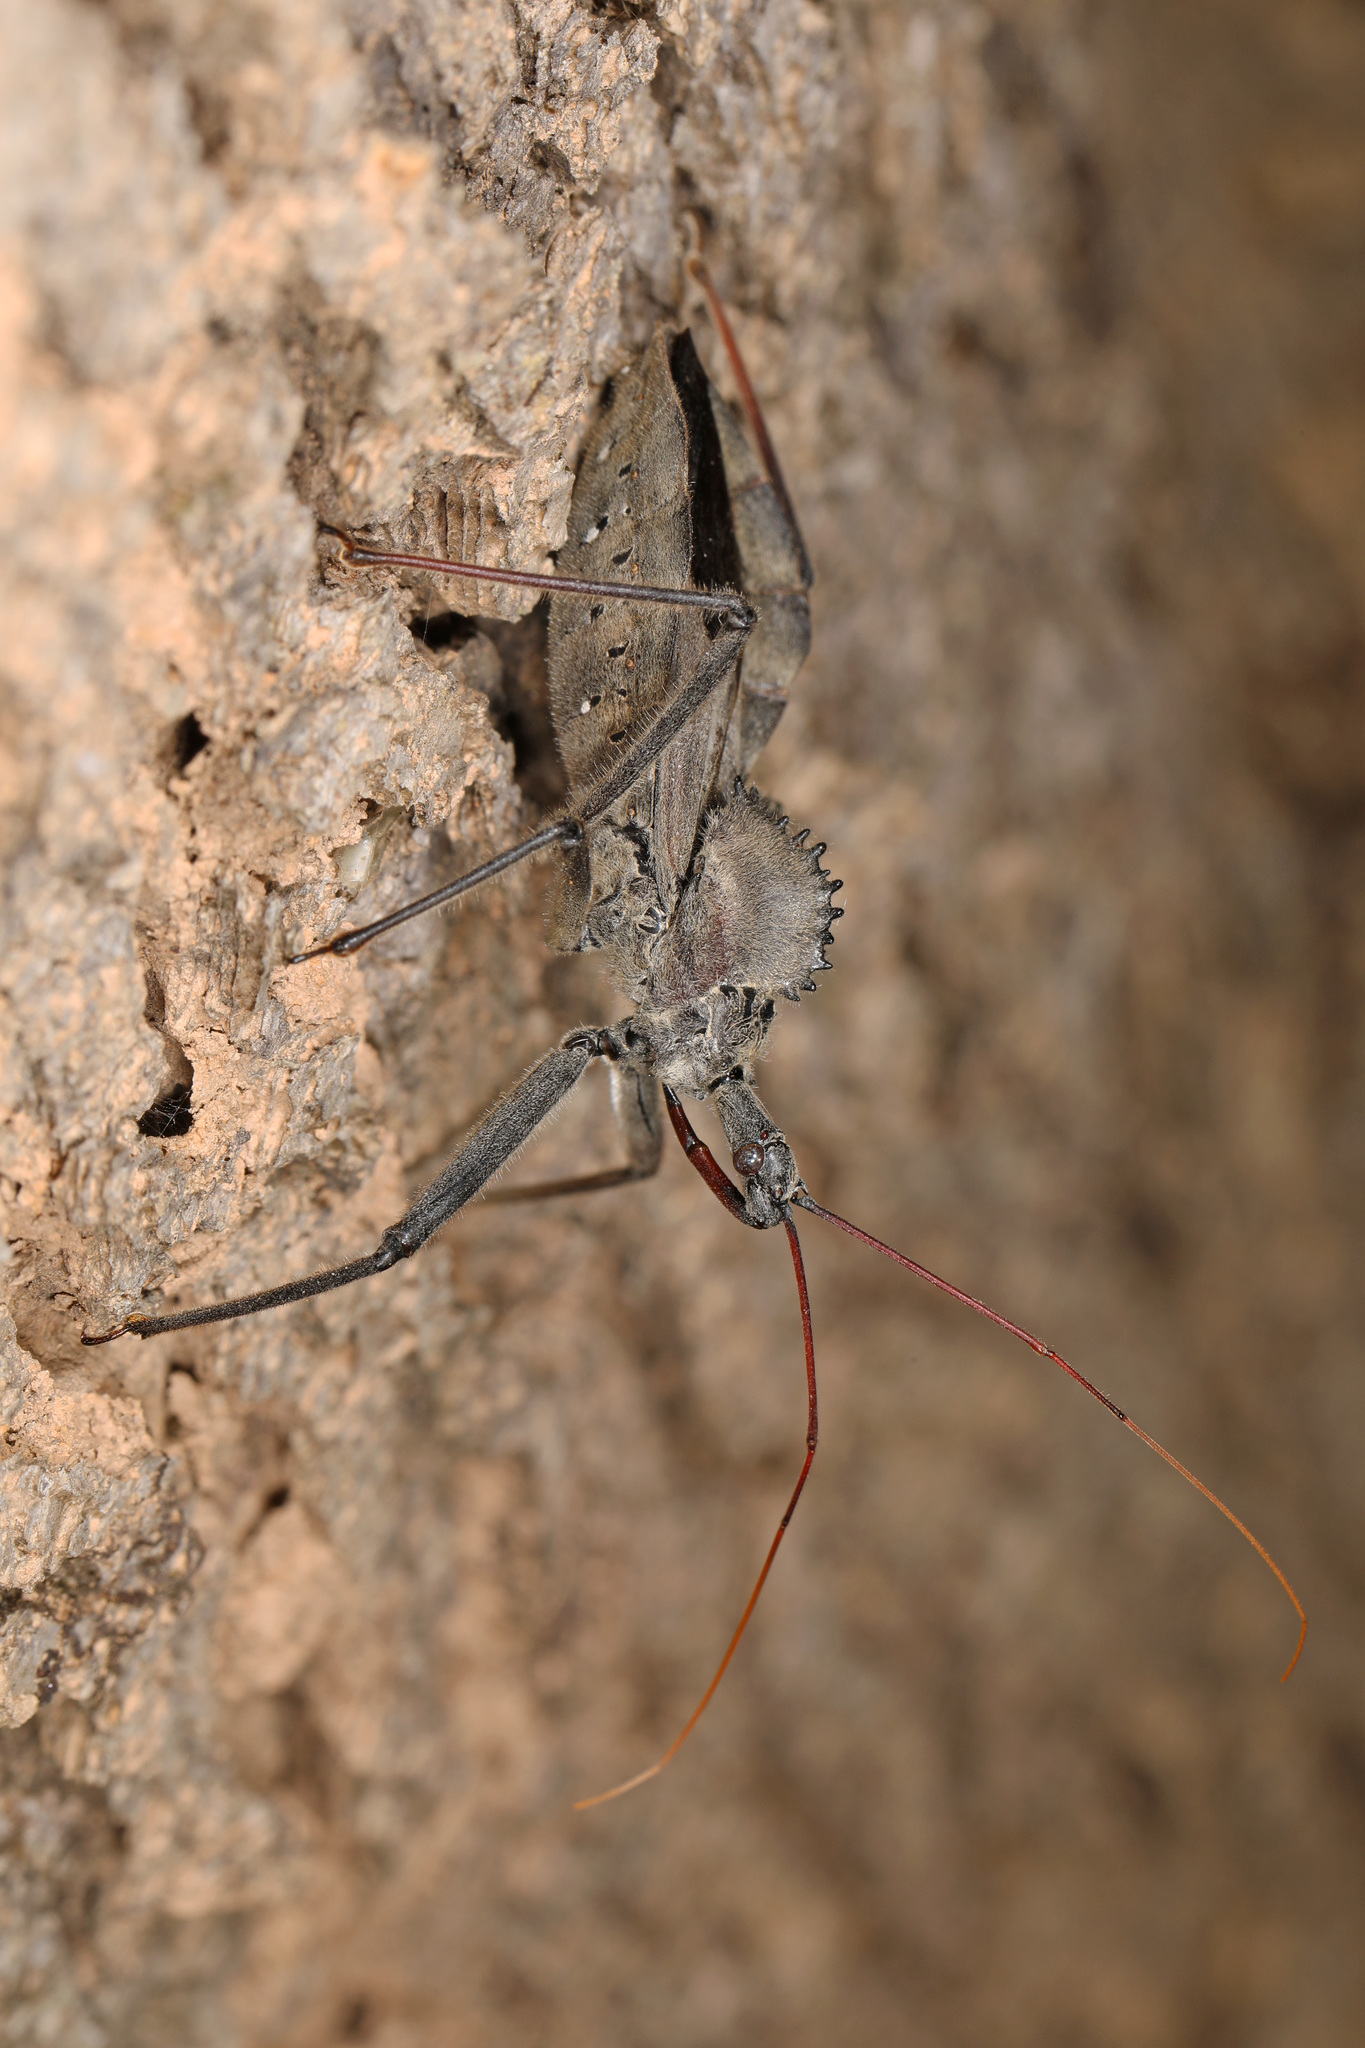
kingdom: Animalia
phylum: Arthropoda
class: Insecta
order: Hemiptera
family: Reduviidae
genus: Arilus
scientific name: Arilus cristatus
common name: North american wheel bug
